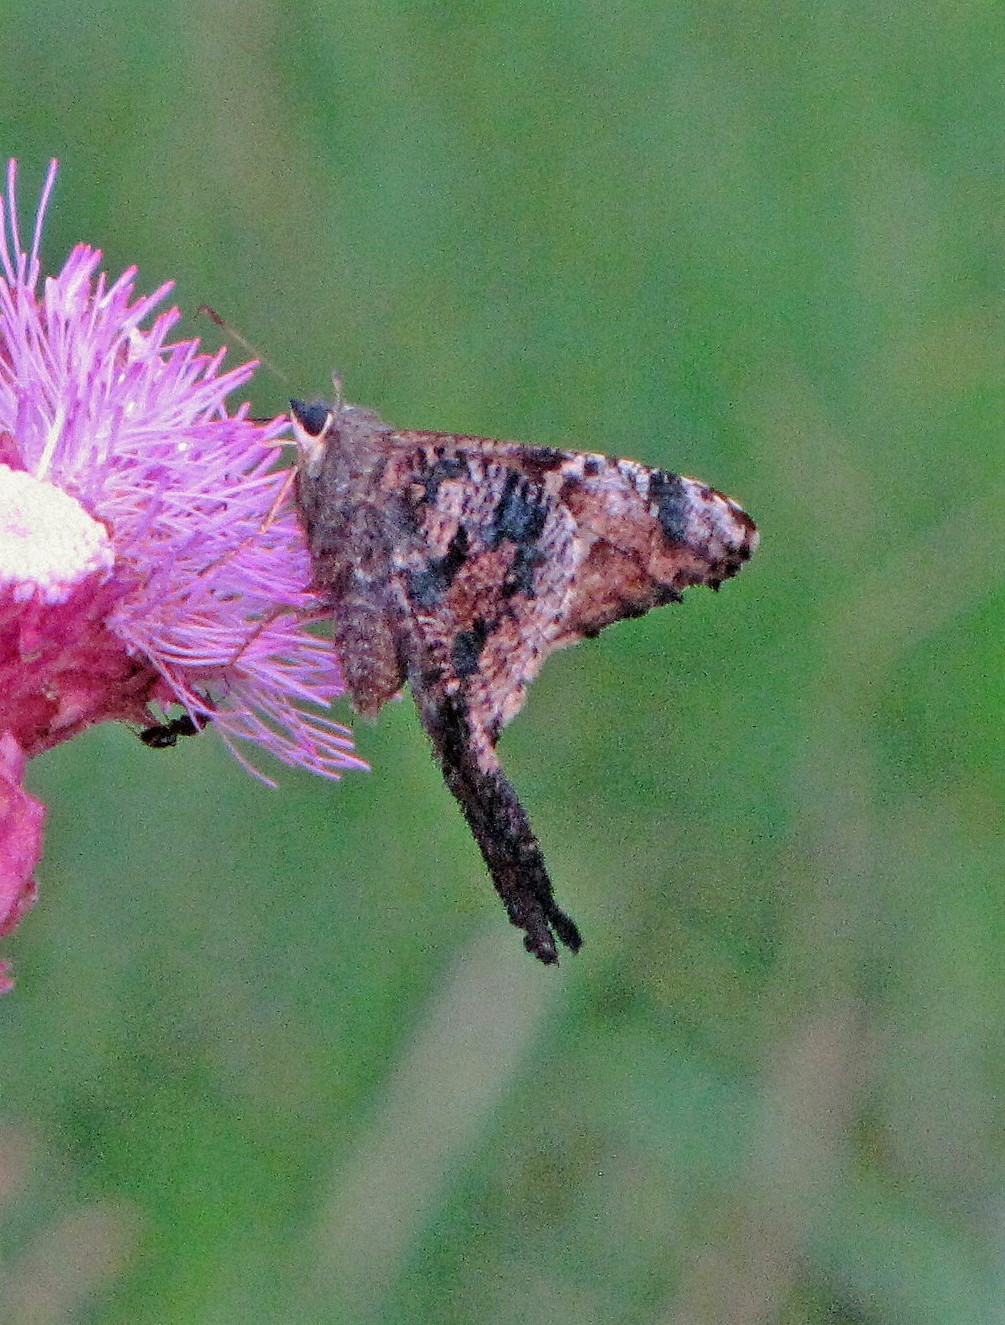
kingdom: Animalia
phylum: Arthropoda
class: Insecta
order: Lepidoptera
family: Hesperiidae
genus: Typhedanus
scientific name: Typhedanus undulatus
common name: Mottled longtail
